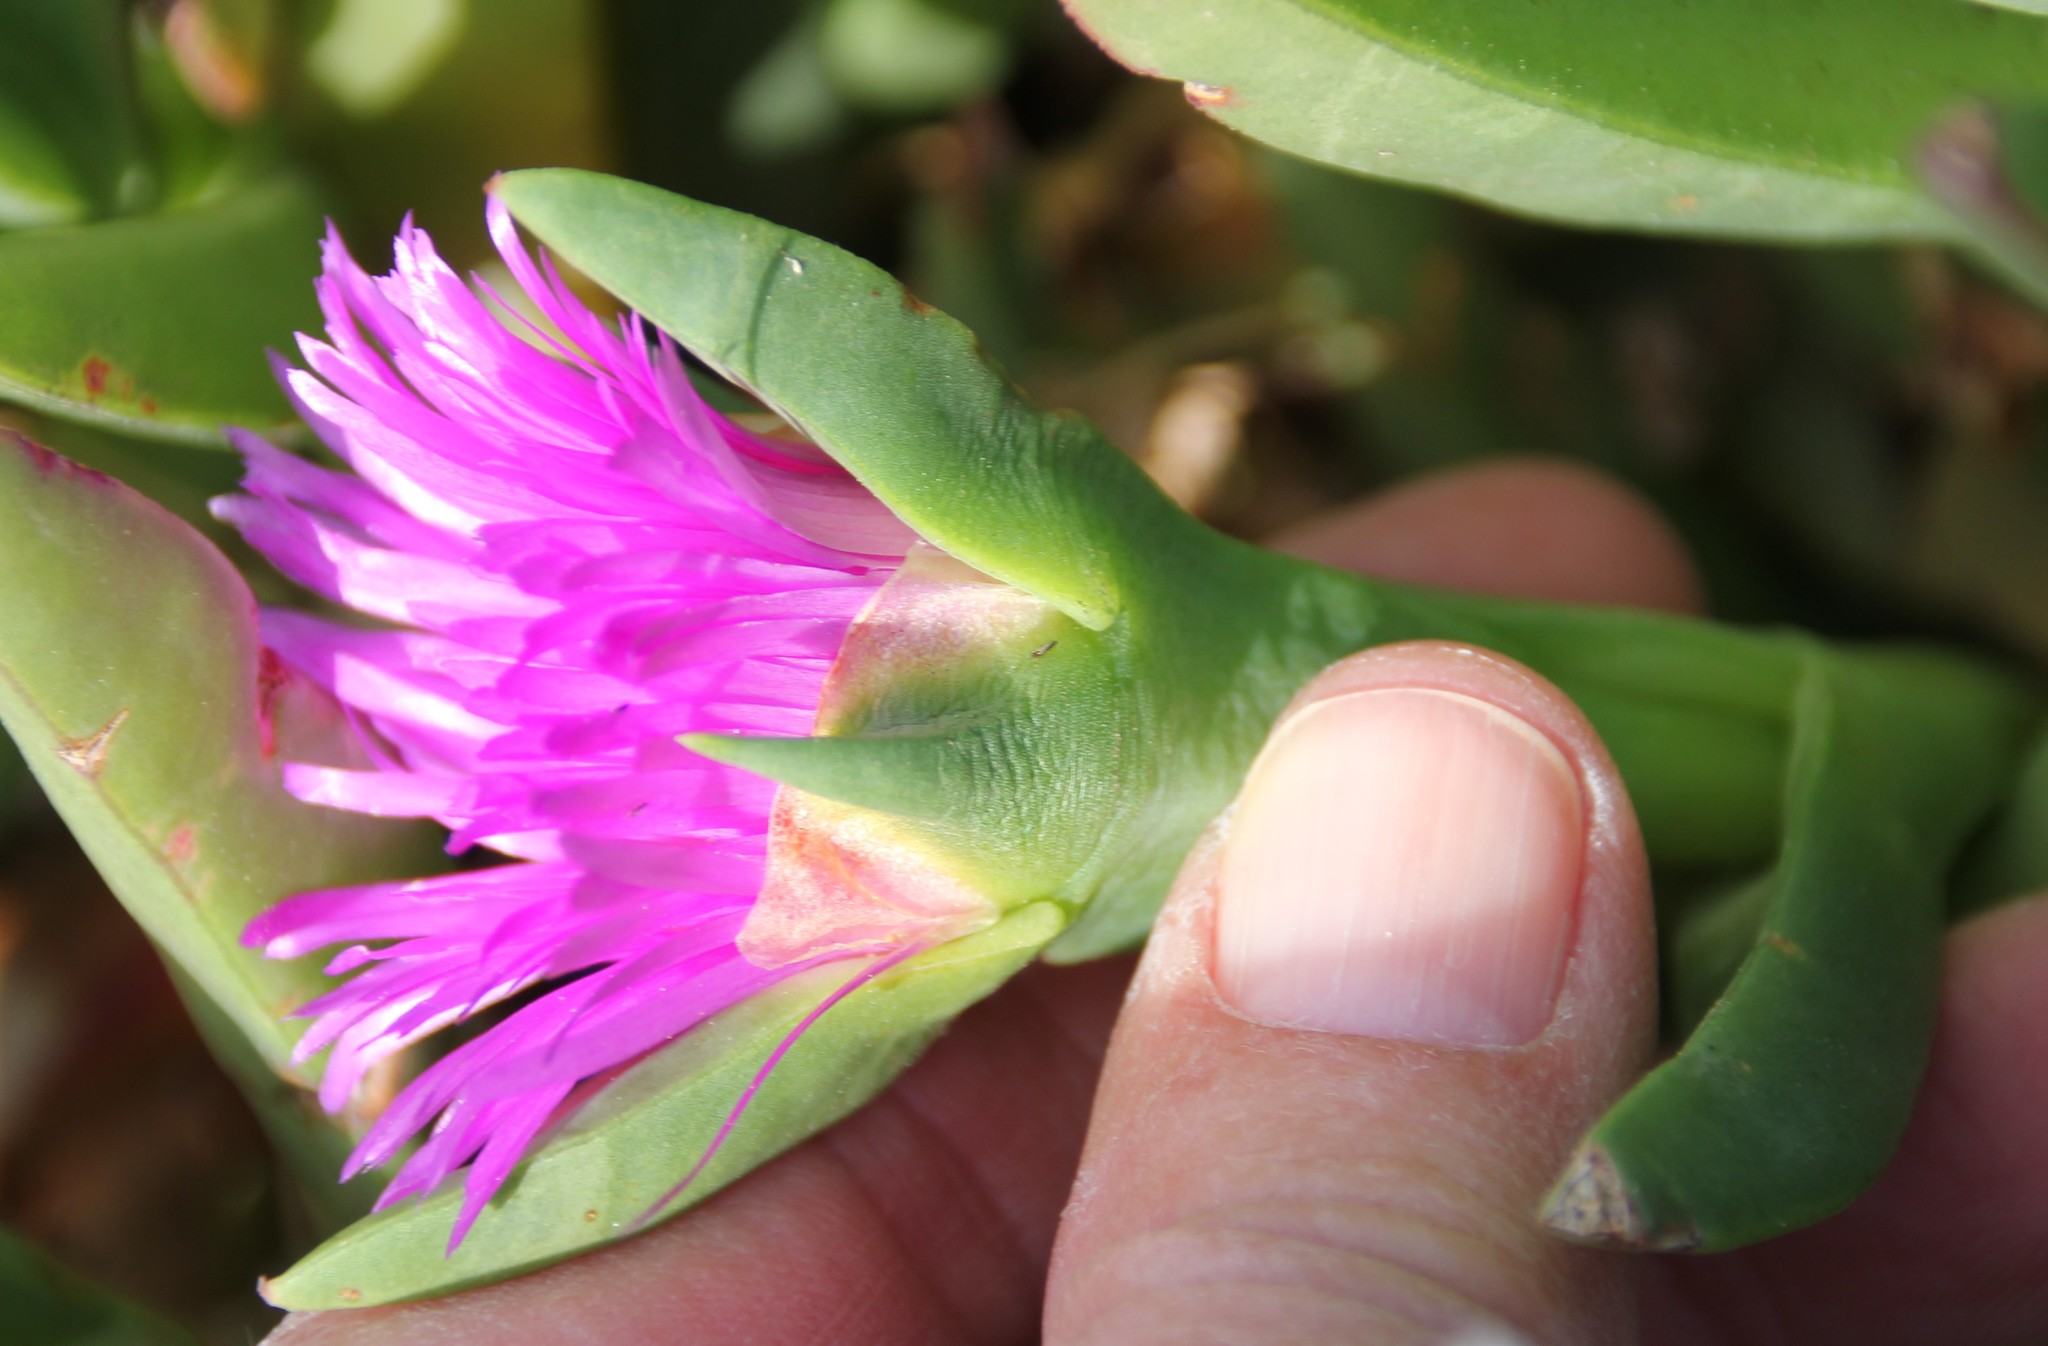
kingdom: Plantae
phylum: Tracheophyta
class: Magnoliopsida
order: Caryophyllales
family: Aizoaceae
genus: Carpobrotus
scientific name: Carpobrotus chilensis
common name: Sea fig
